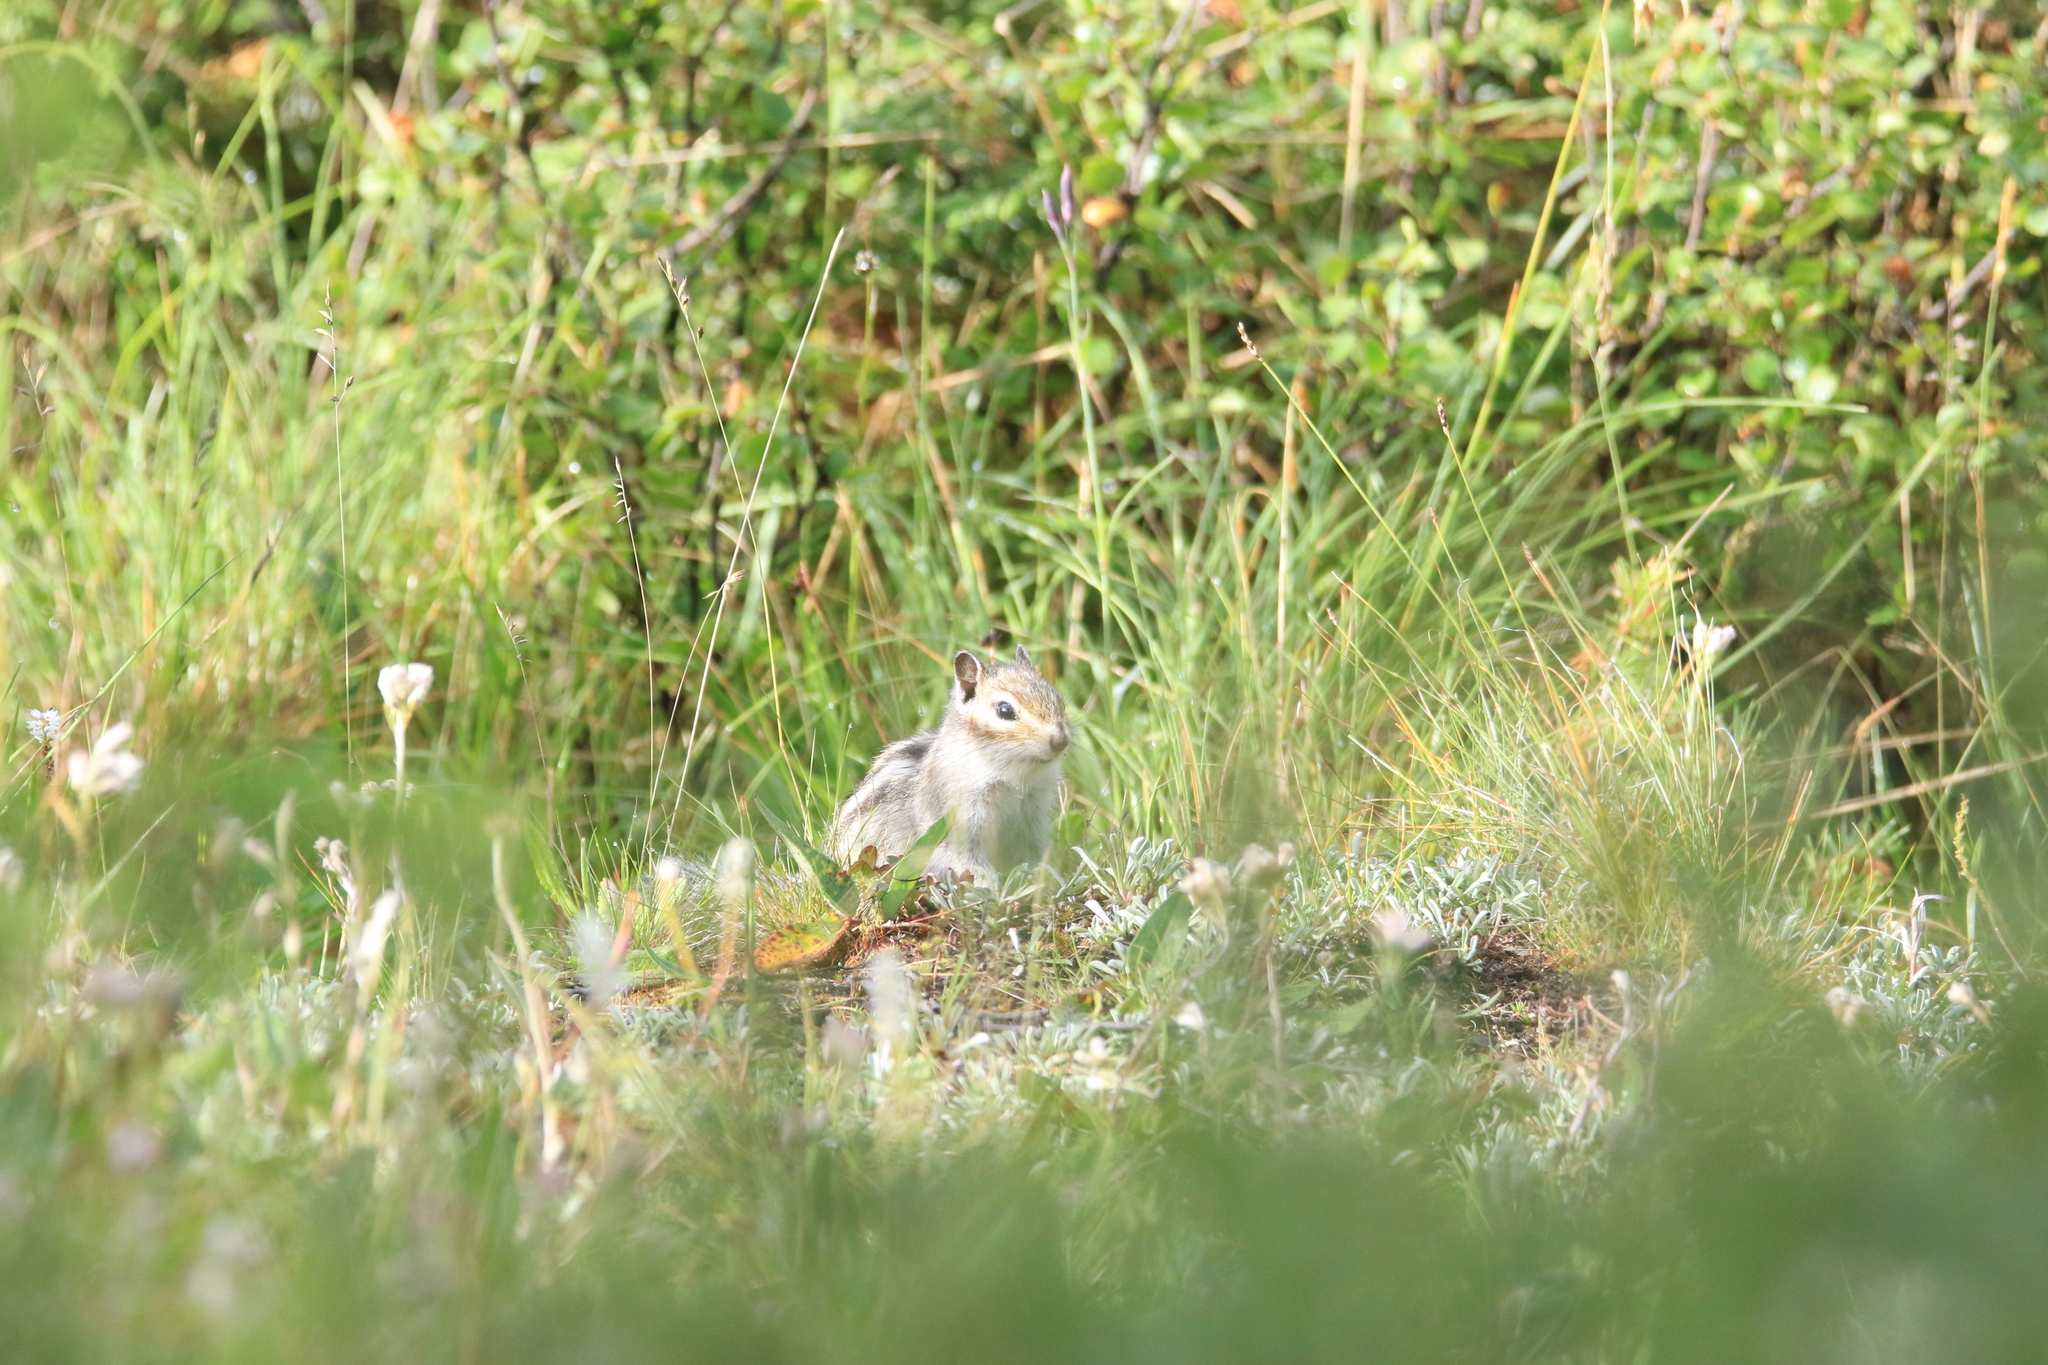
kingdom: Animalia
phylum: Chordata
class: Mammalia
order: Rodentia
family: Sciuridae
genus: Tamias
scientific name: Tamias sibiricus
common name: Siberian chipmunk
